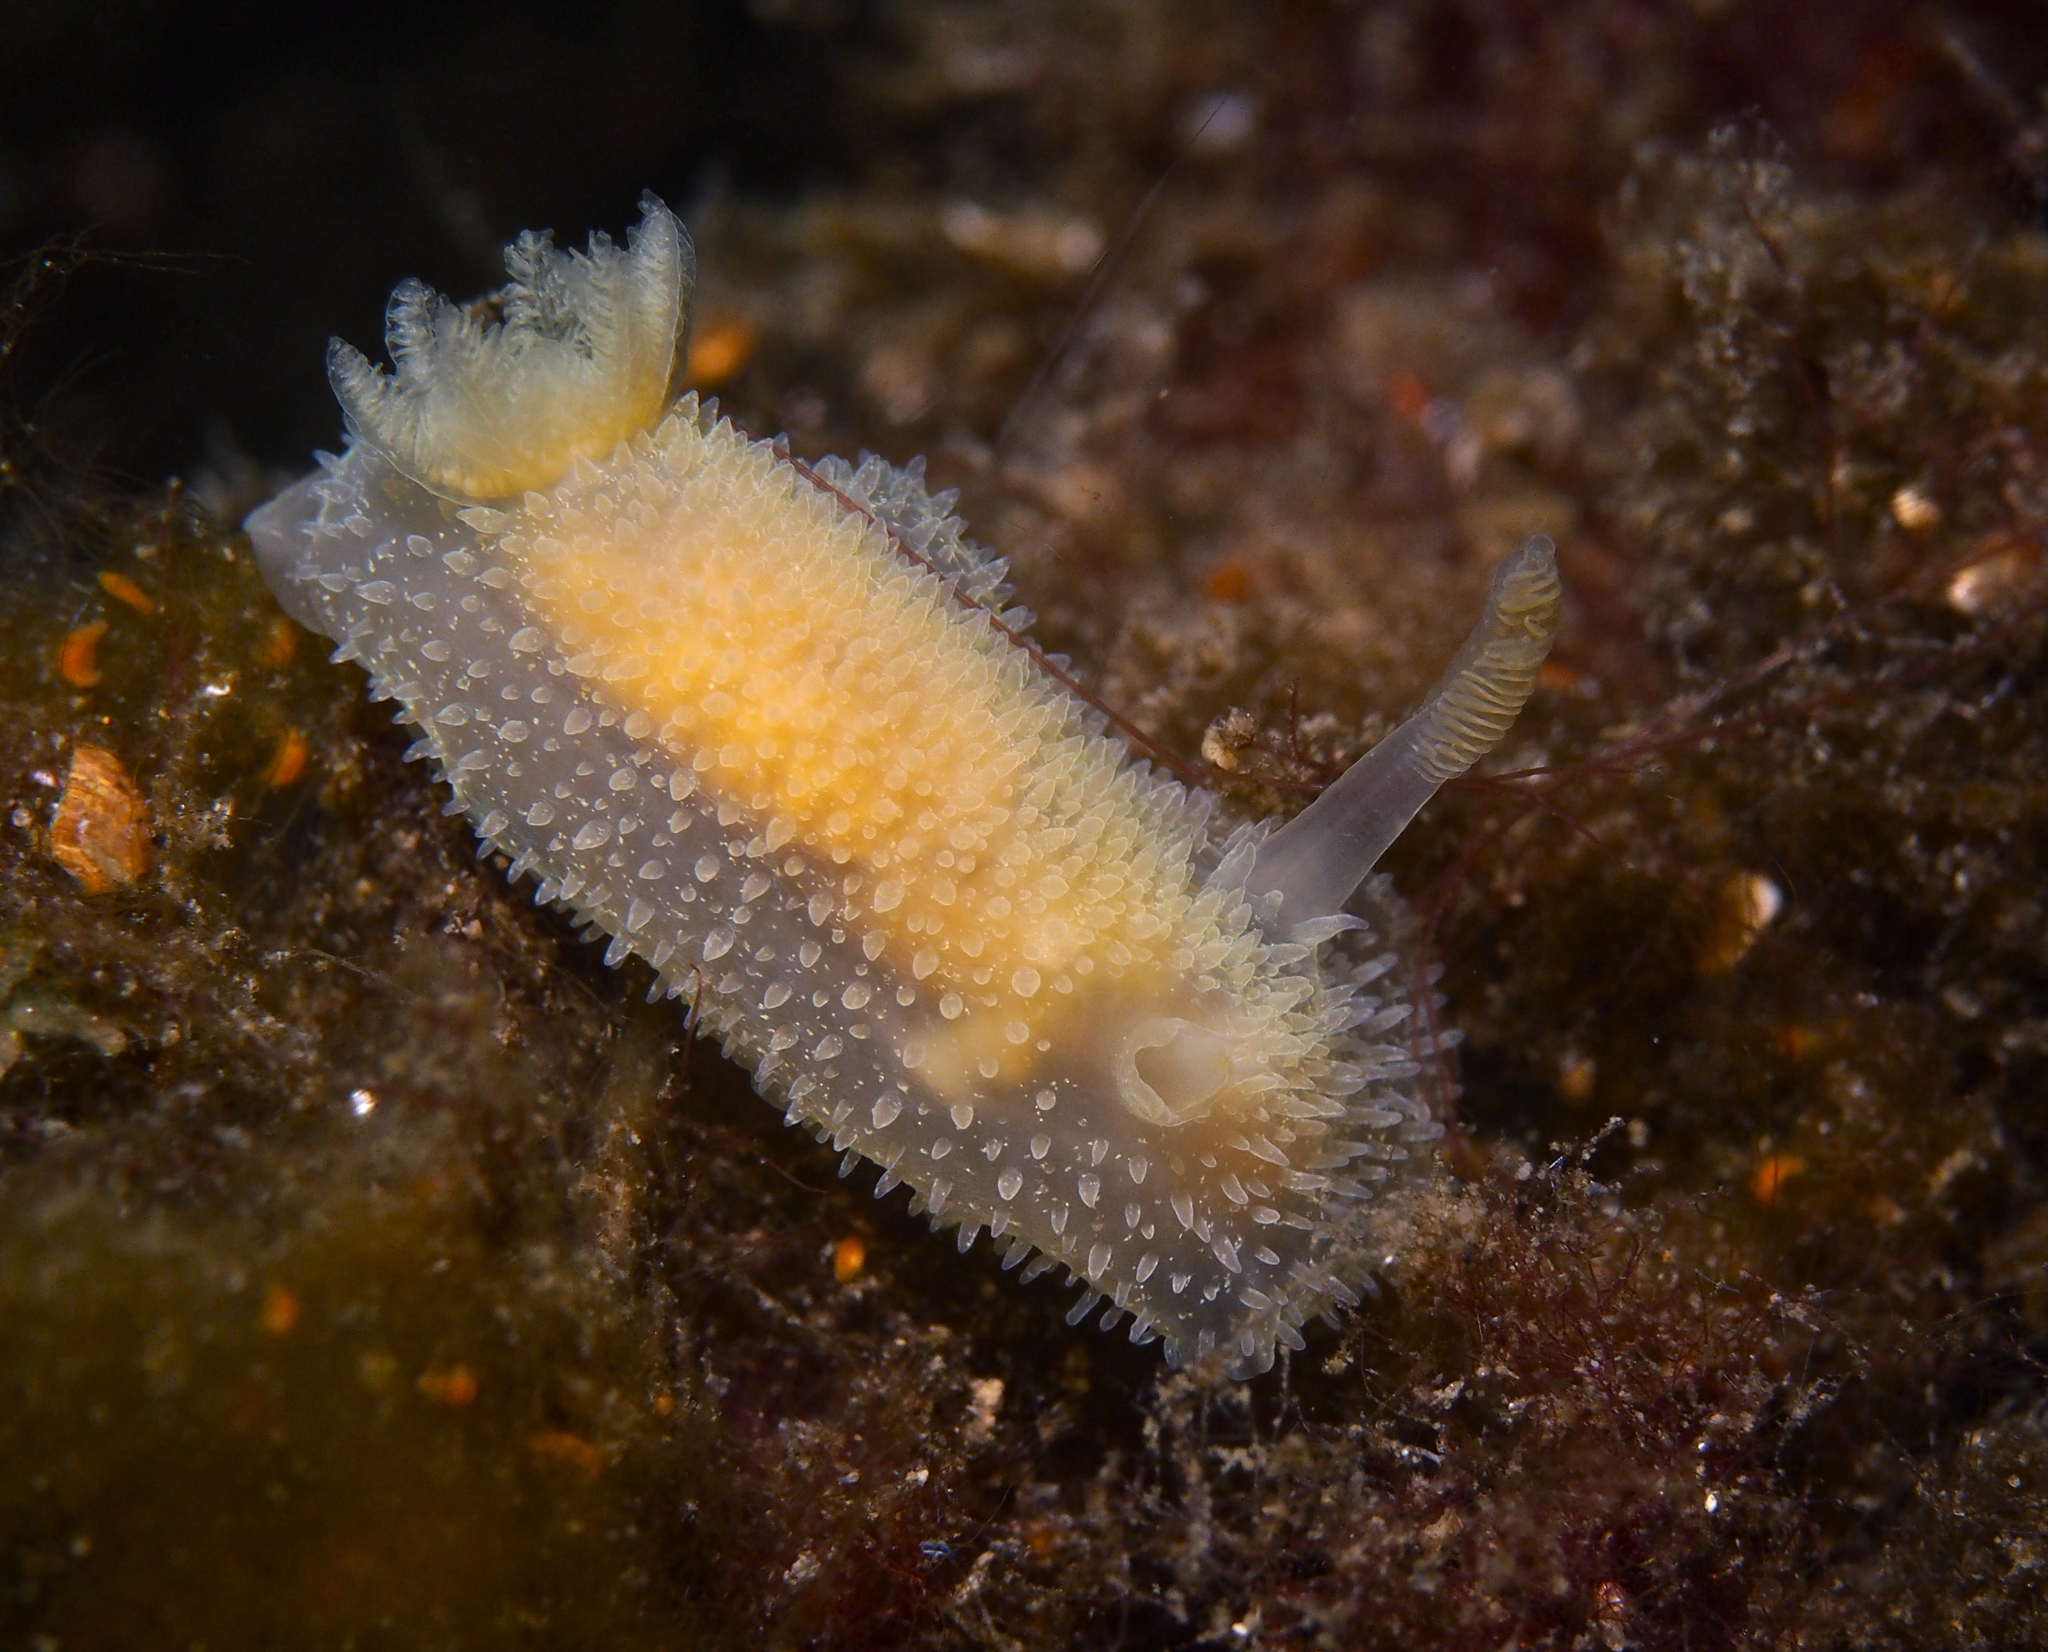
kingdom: Animalia
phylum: Mollusca
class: Gastropoda
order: Nudibranchia
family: Onchidorididae
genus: Acanthodoris
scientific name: Acanthodoris pilosa
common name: Hairy spiny doris
